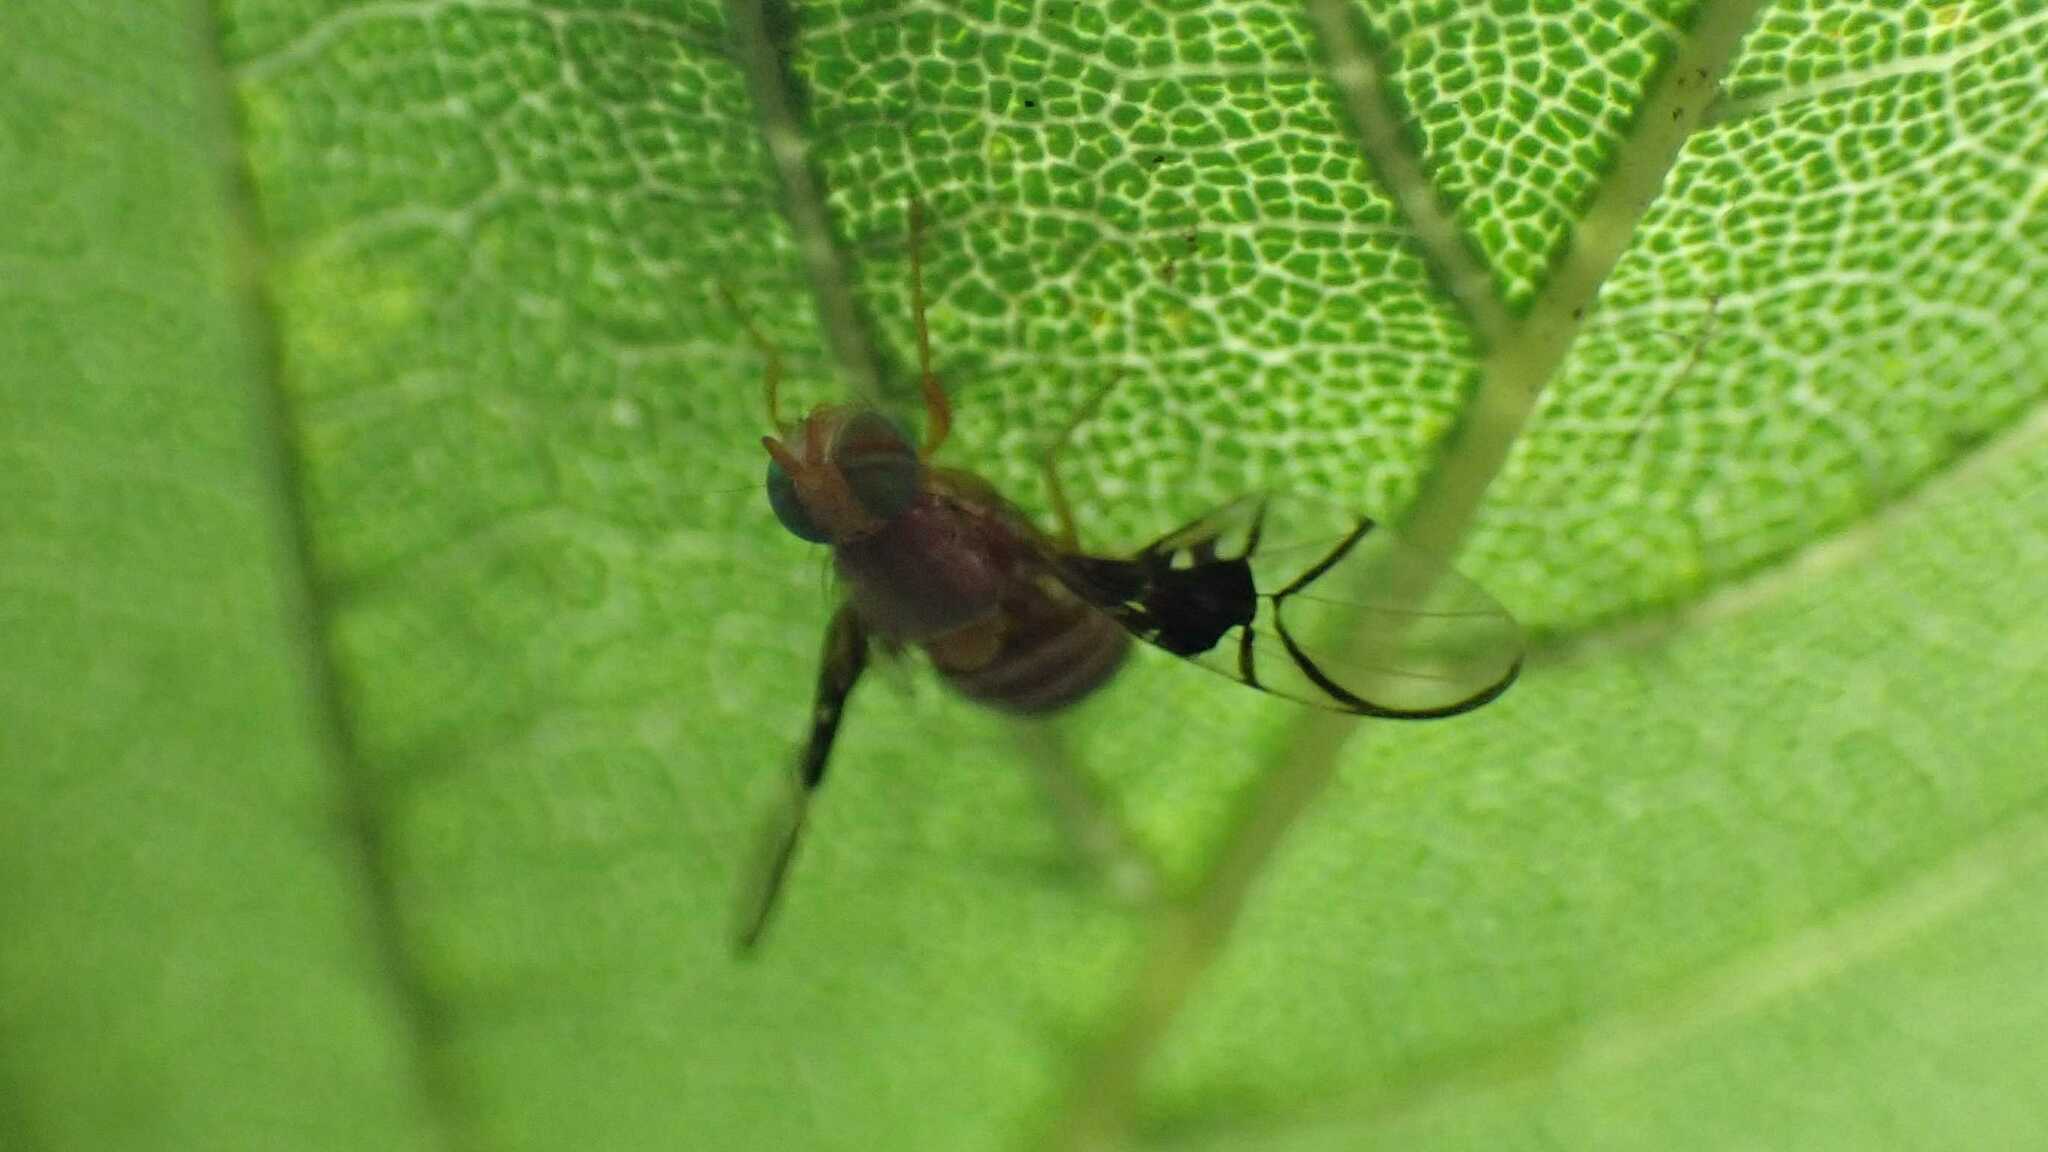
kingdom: Animalia
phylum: Arthropoda
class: Insecta
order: Diptera
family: Tephritidae
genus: Anomoia
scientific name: Anomoia purmunda
